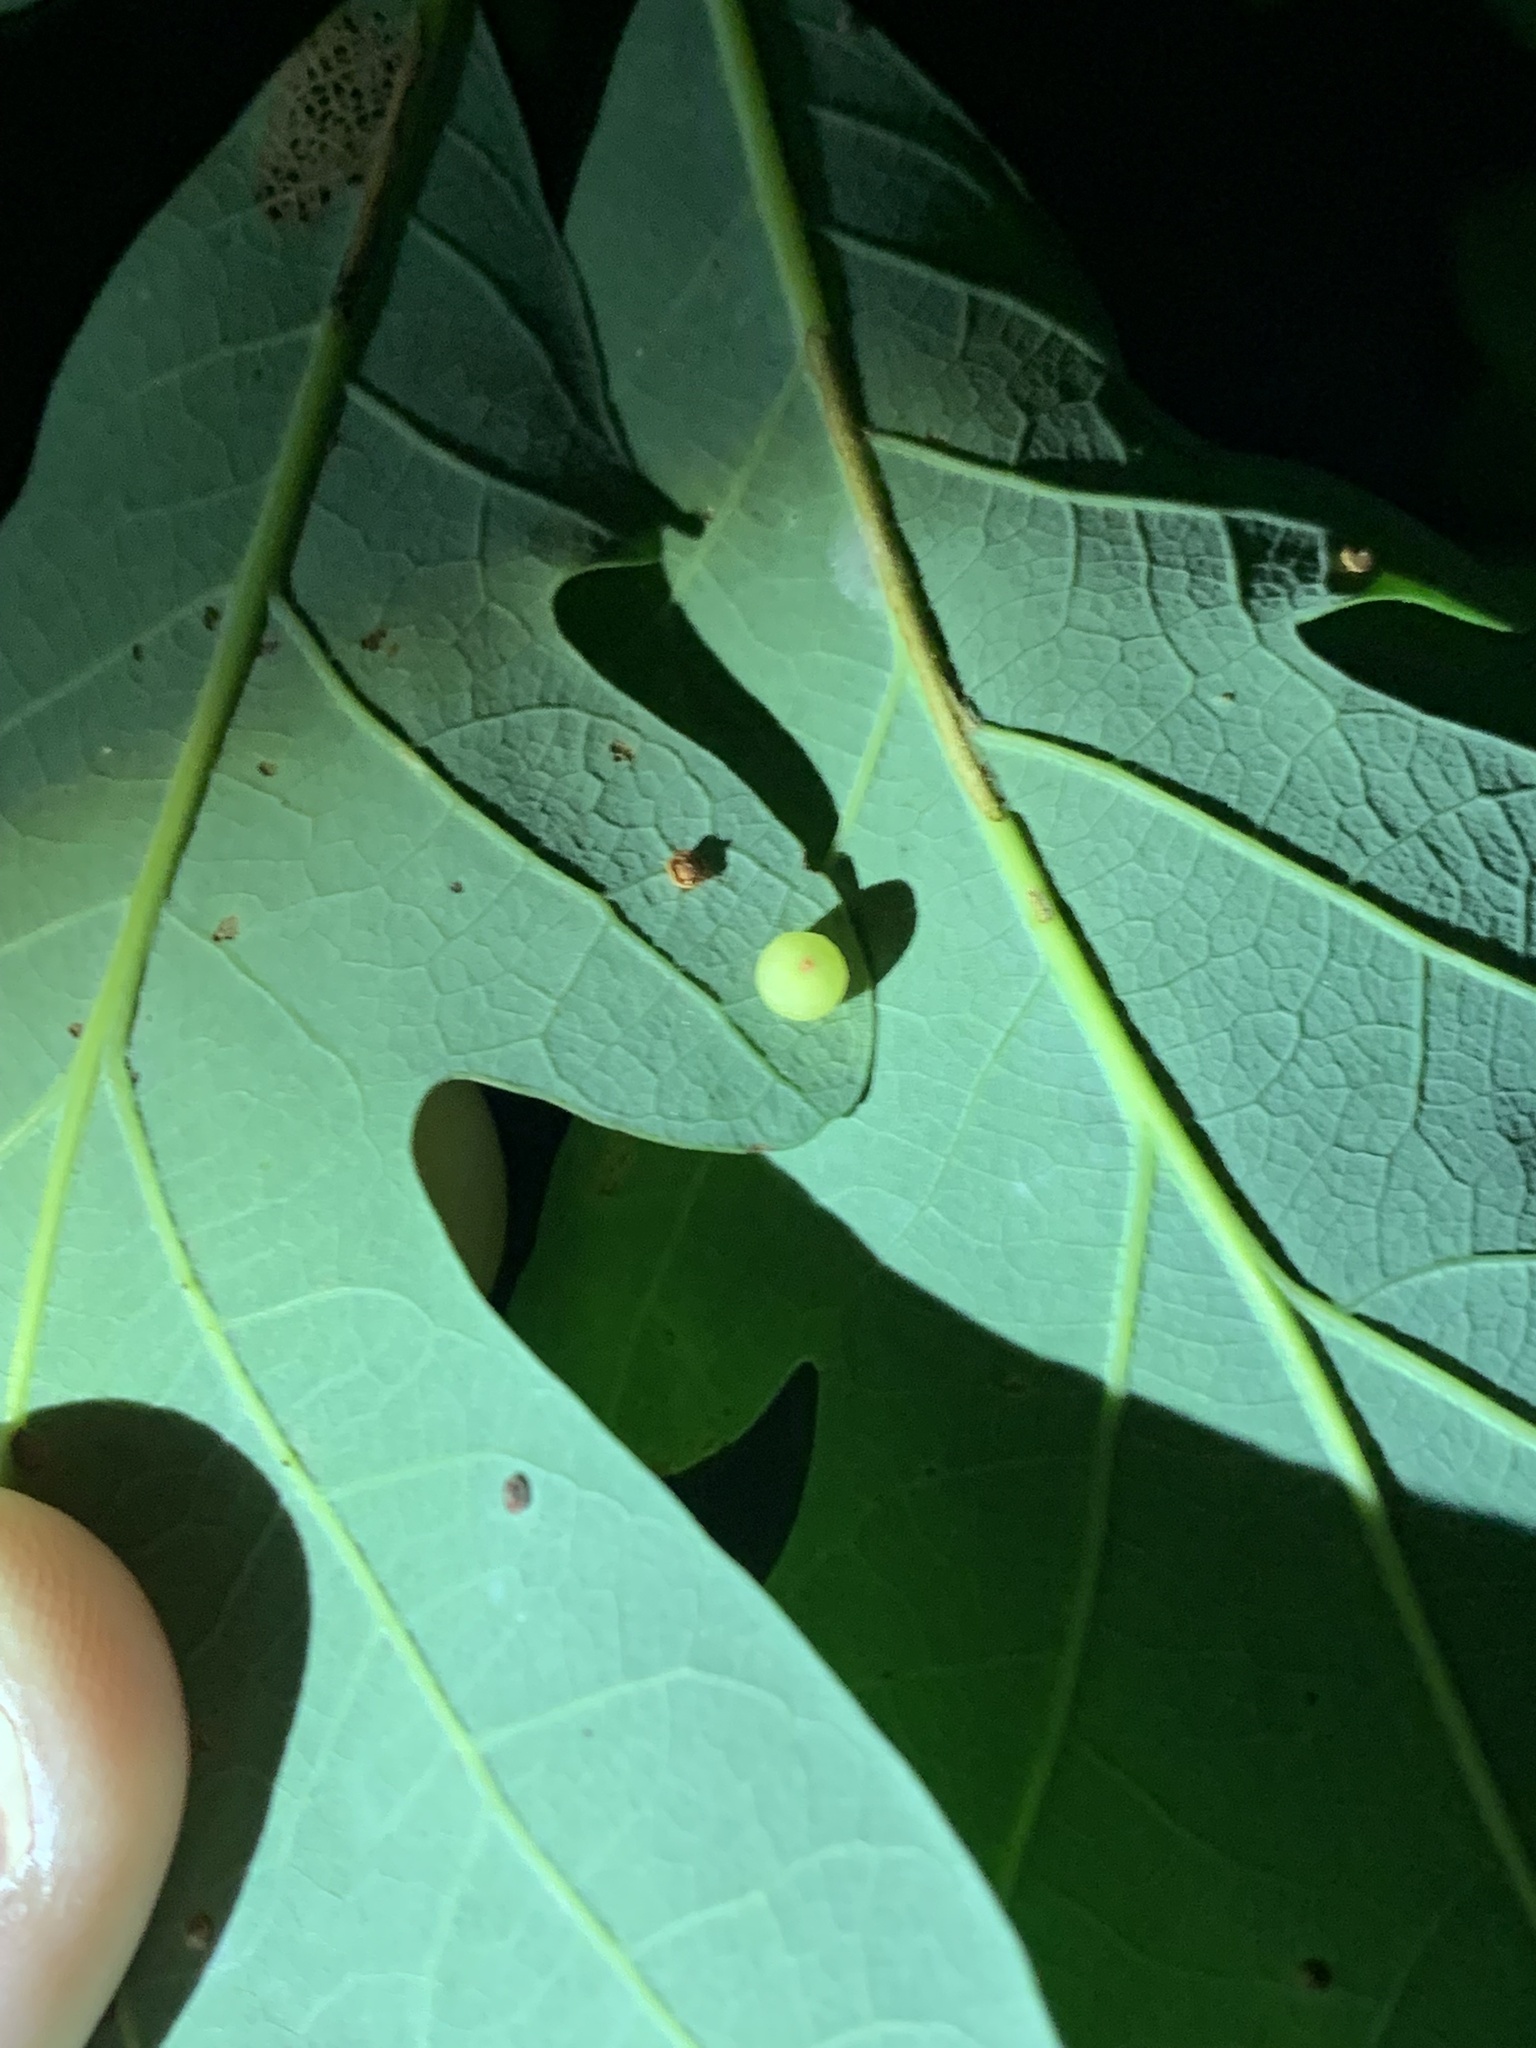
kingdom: Animalia
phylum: Arthropoda
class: Insecta
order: Hymenoptera
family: Cynipidae
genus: Andricus
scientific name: Andricus
